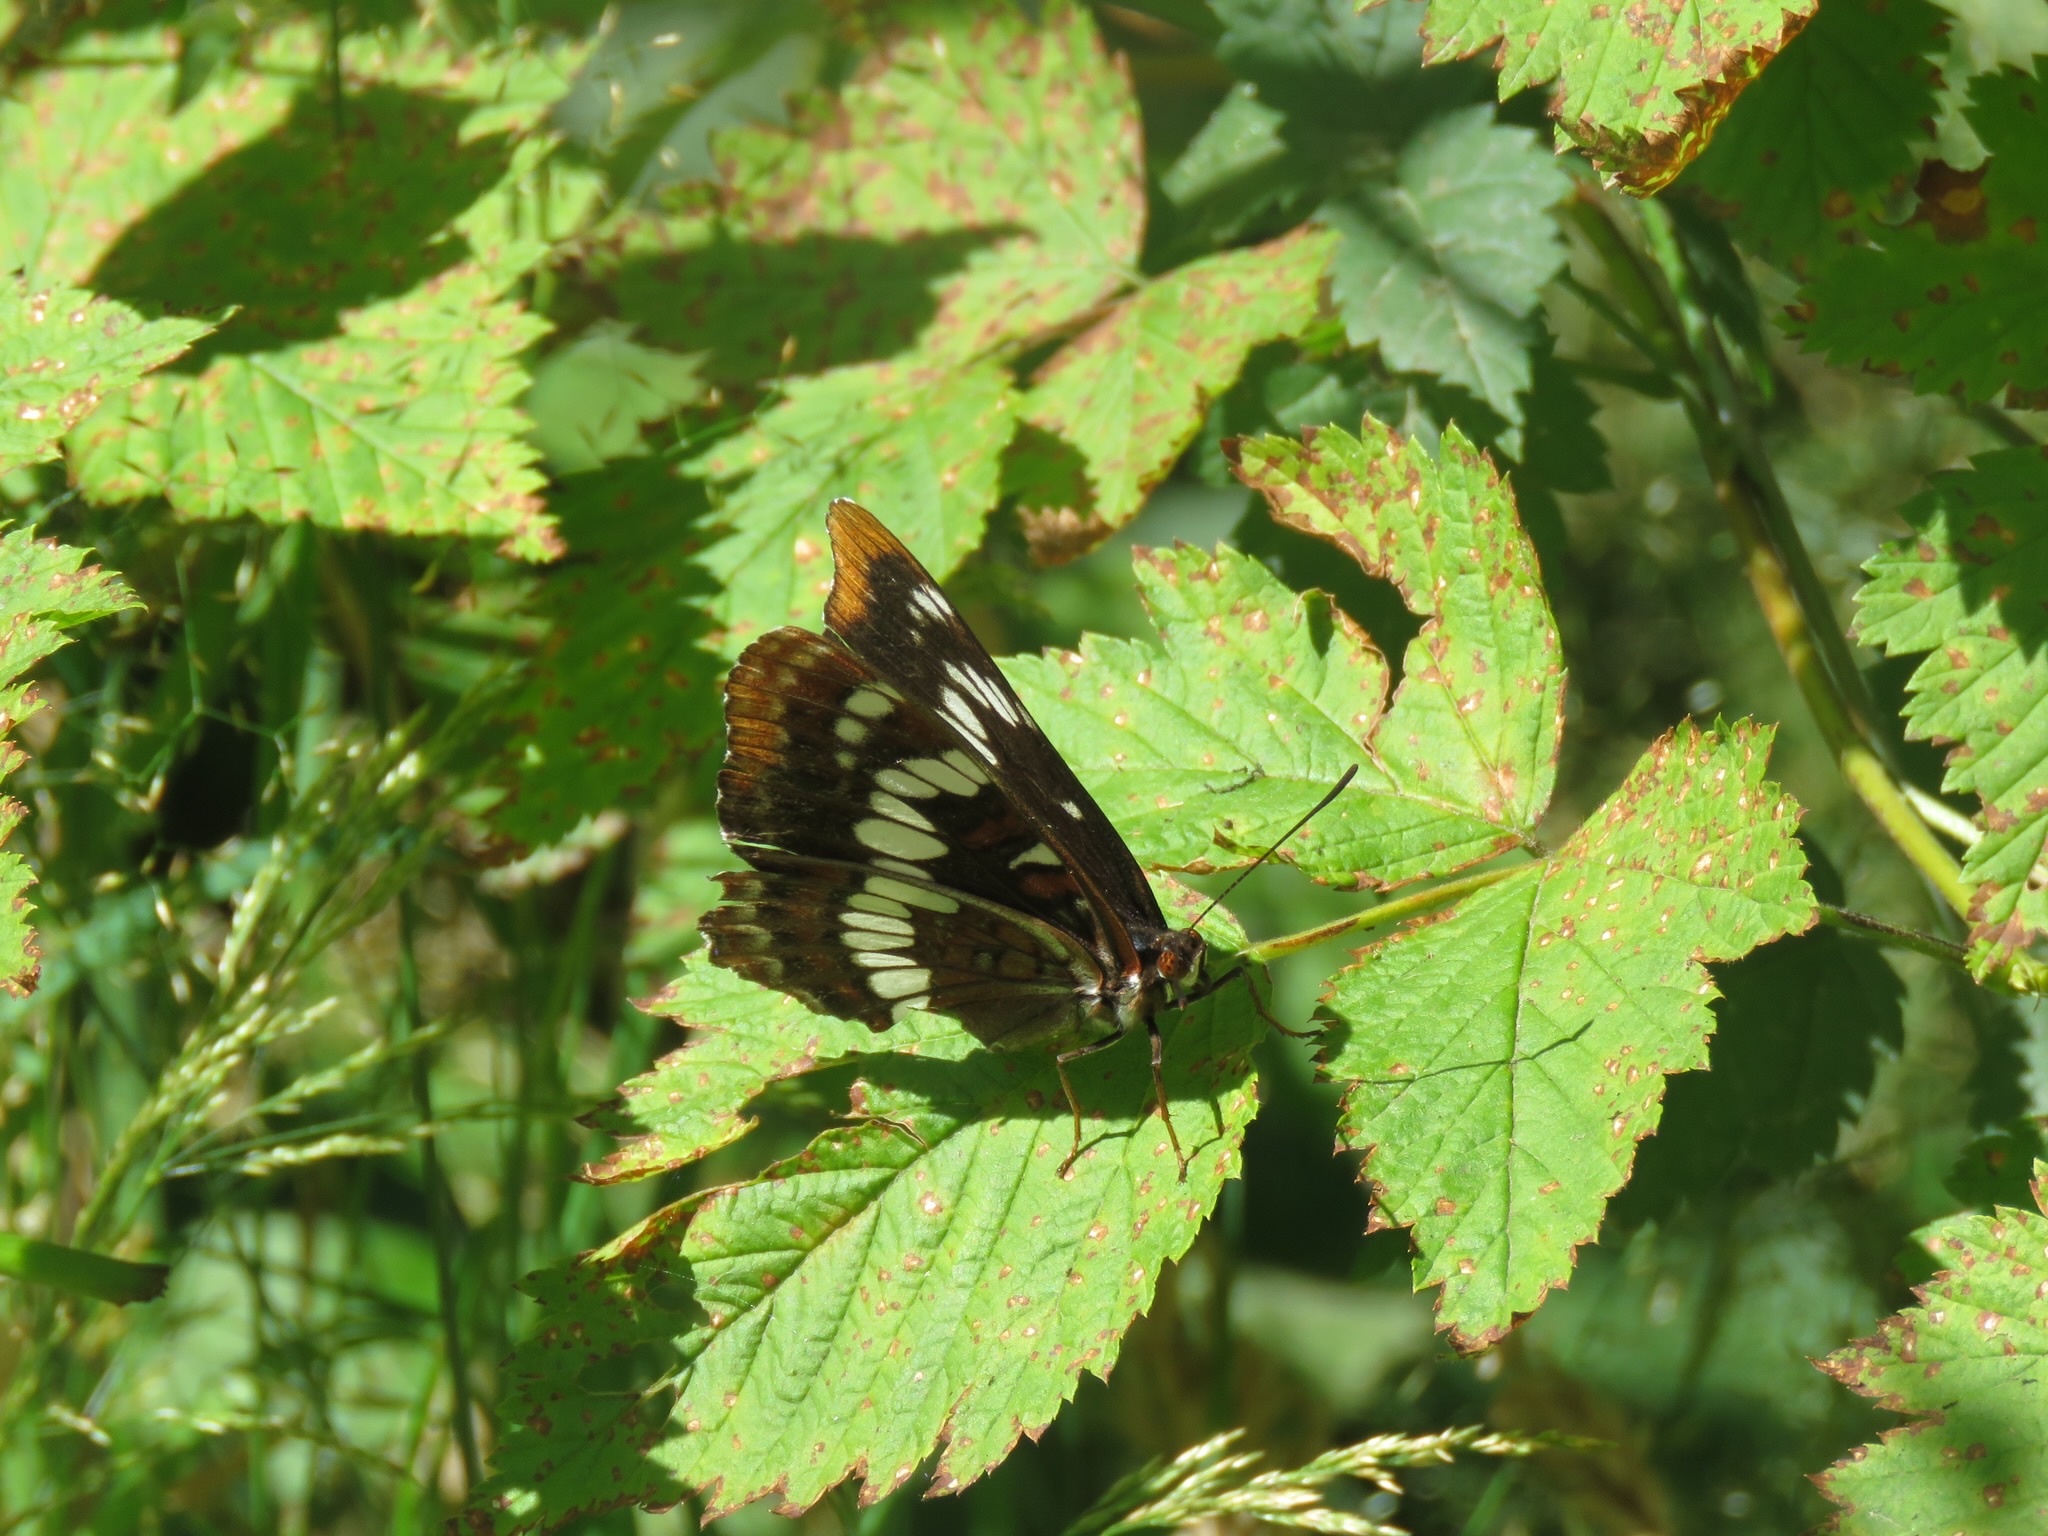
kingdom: Animalia
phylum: Arthropoda
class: Insecta
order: Lepidoptera
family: Nymphalidae
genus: Limenitis
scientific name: Limenitis lorquini
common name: Lorquin's admiral
